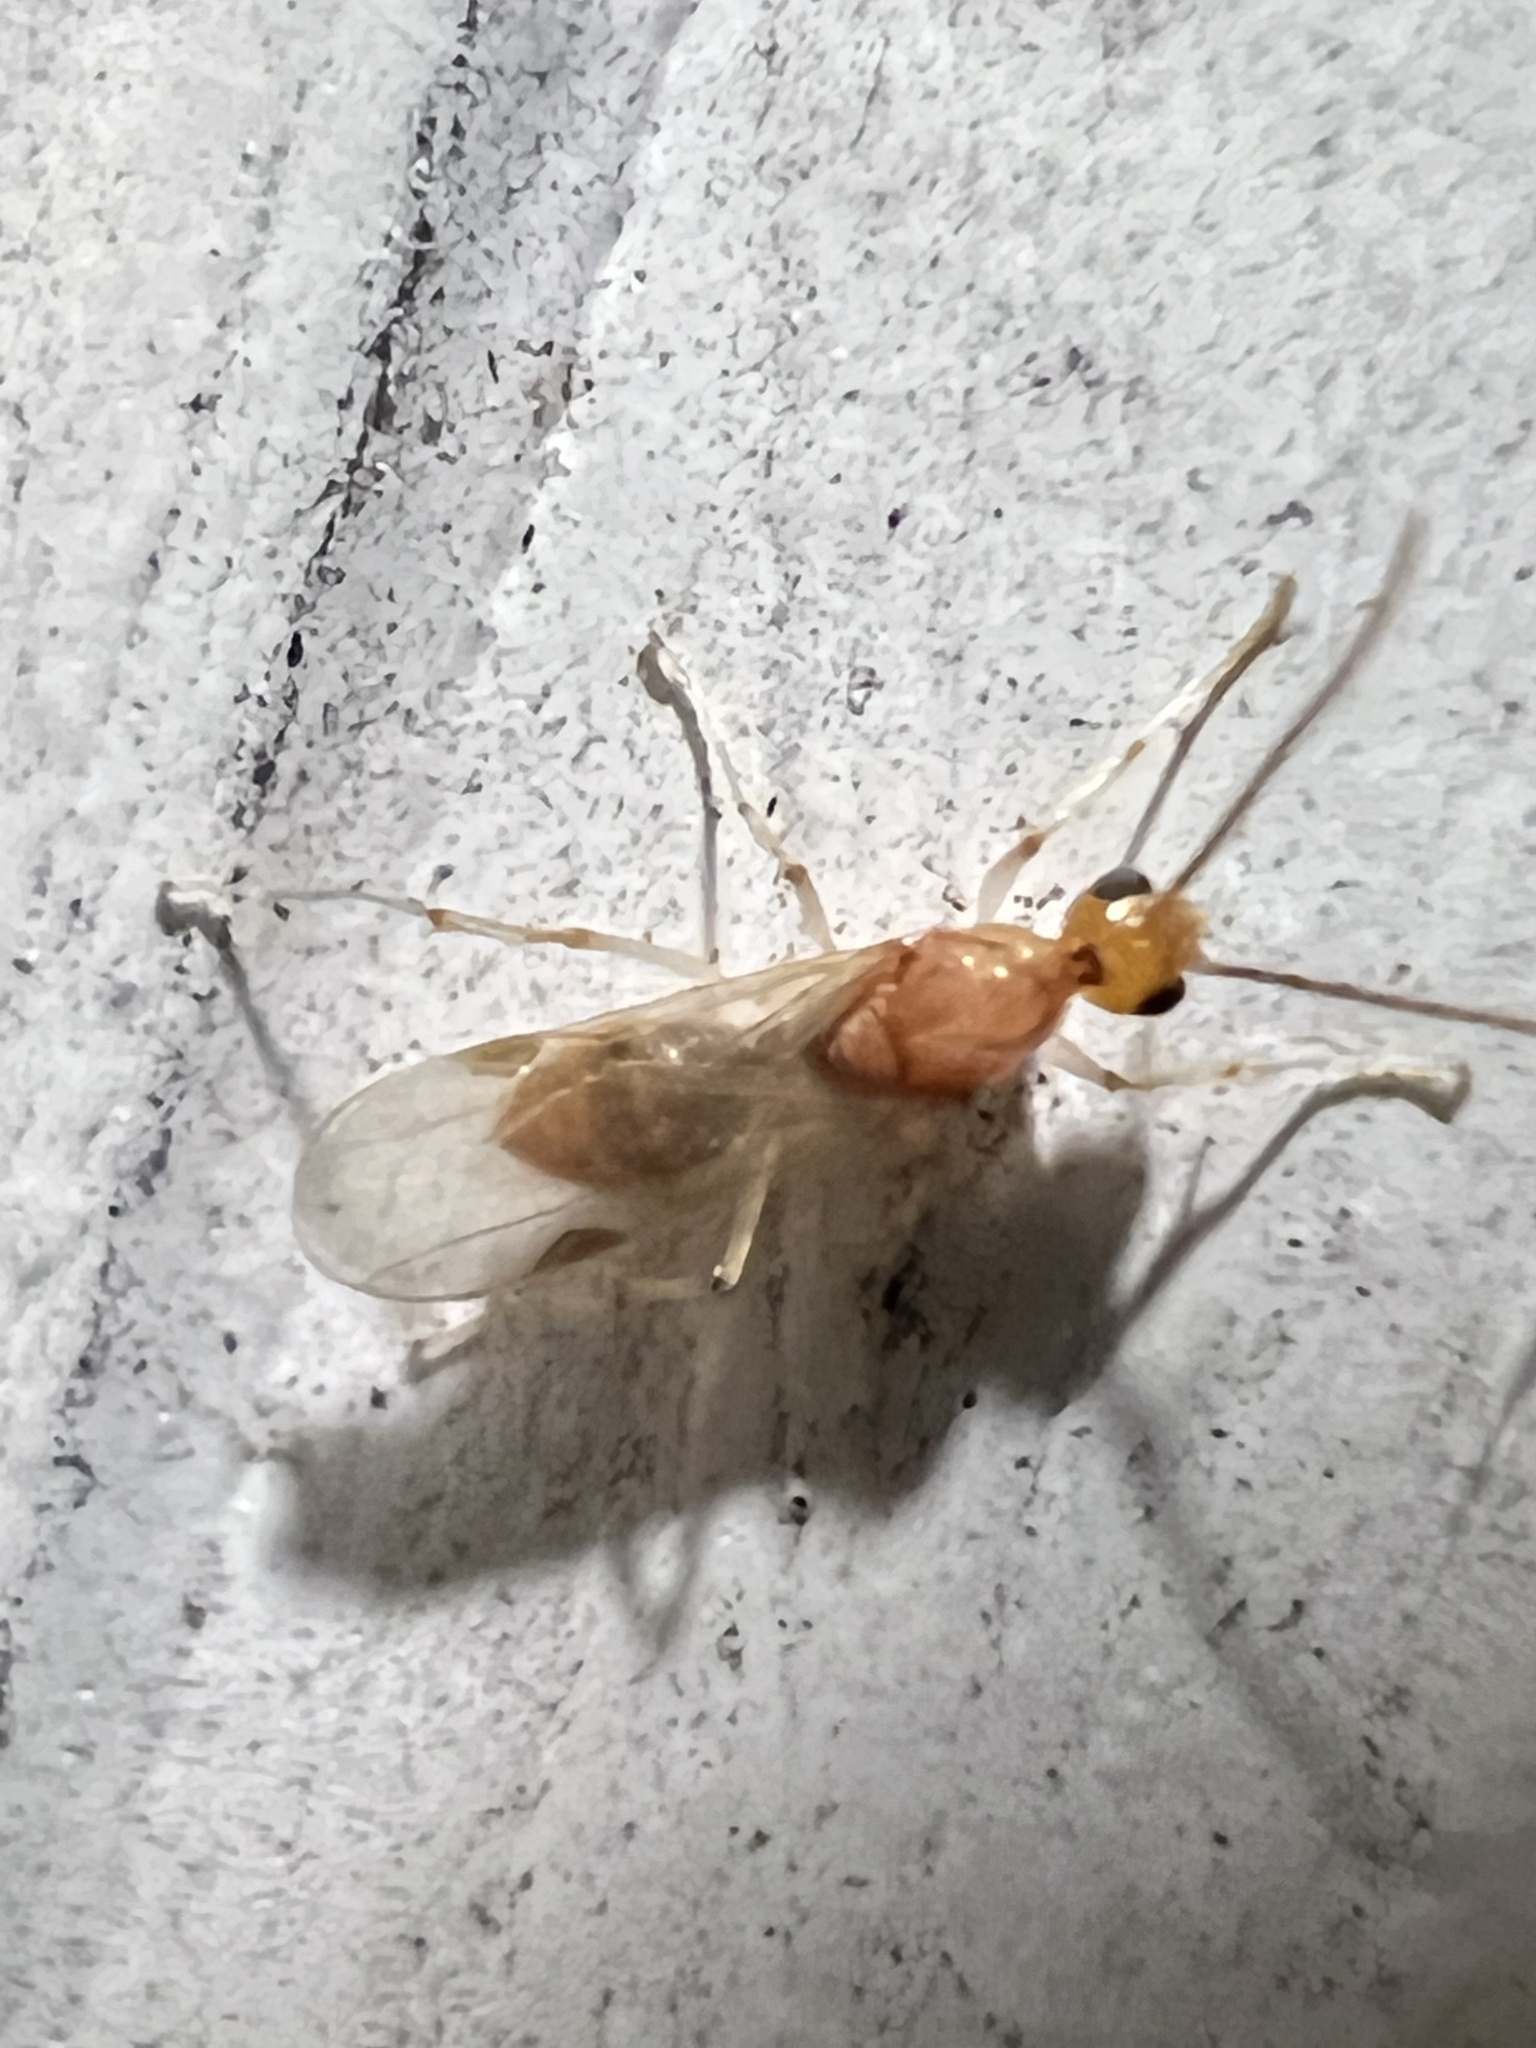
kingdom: Animalia
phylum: Arthropoda
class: Insecta
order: Hymenoptera
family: Formicidae
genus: Pachycondyla
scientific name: Pachycondyla chinensis
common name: Asian needle ant
